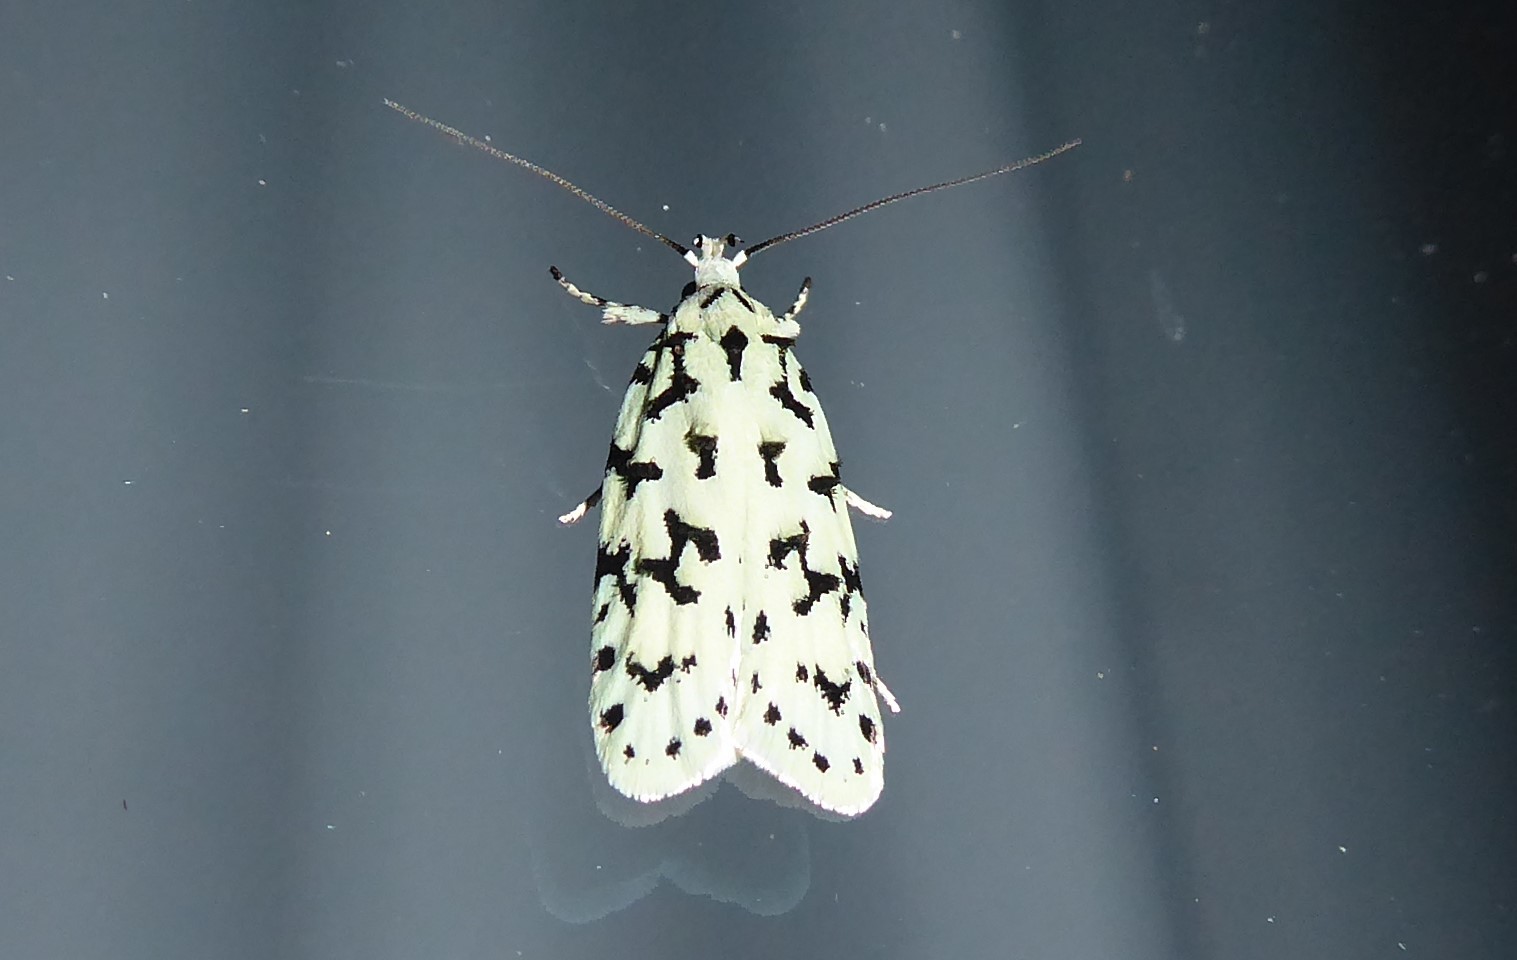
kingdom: Animalia
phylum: Arthropoda
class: Insecta
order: Lepidoptera
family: Oecophoridae
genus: Izatha
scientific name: Izatha huttoni
